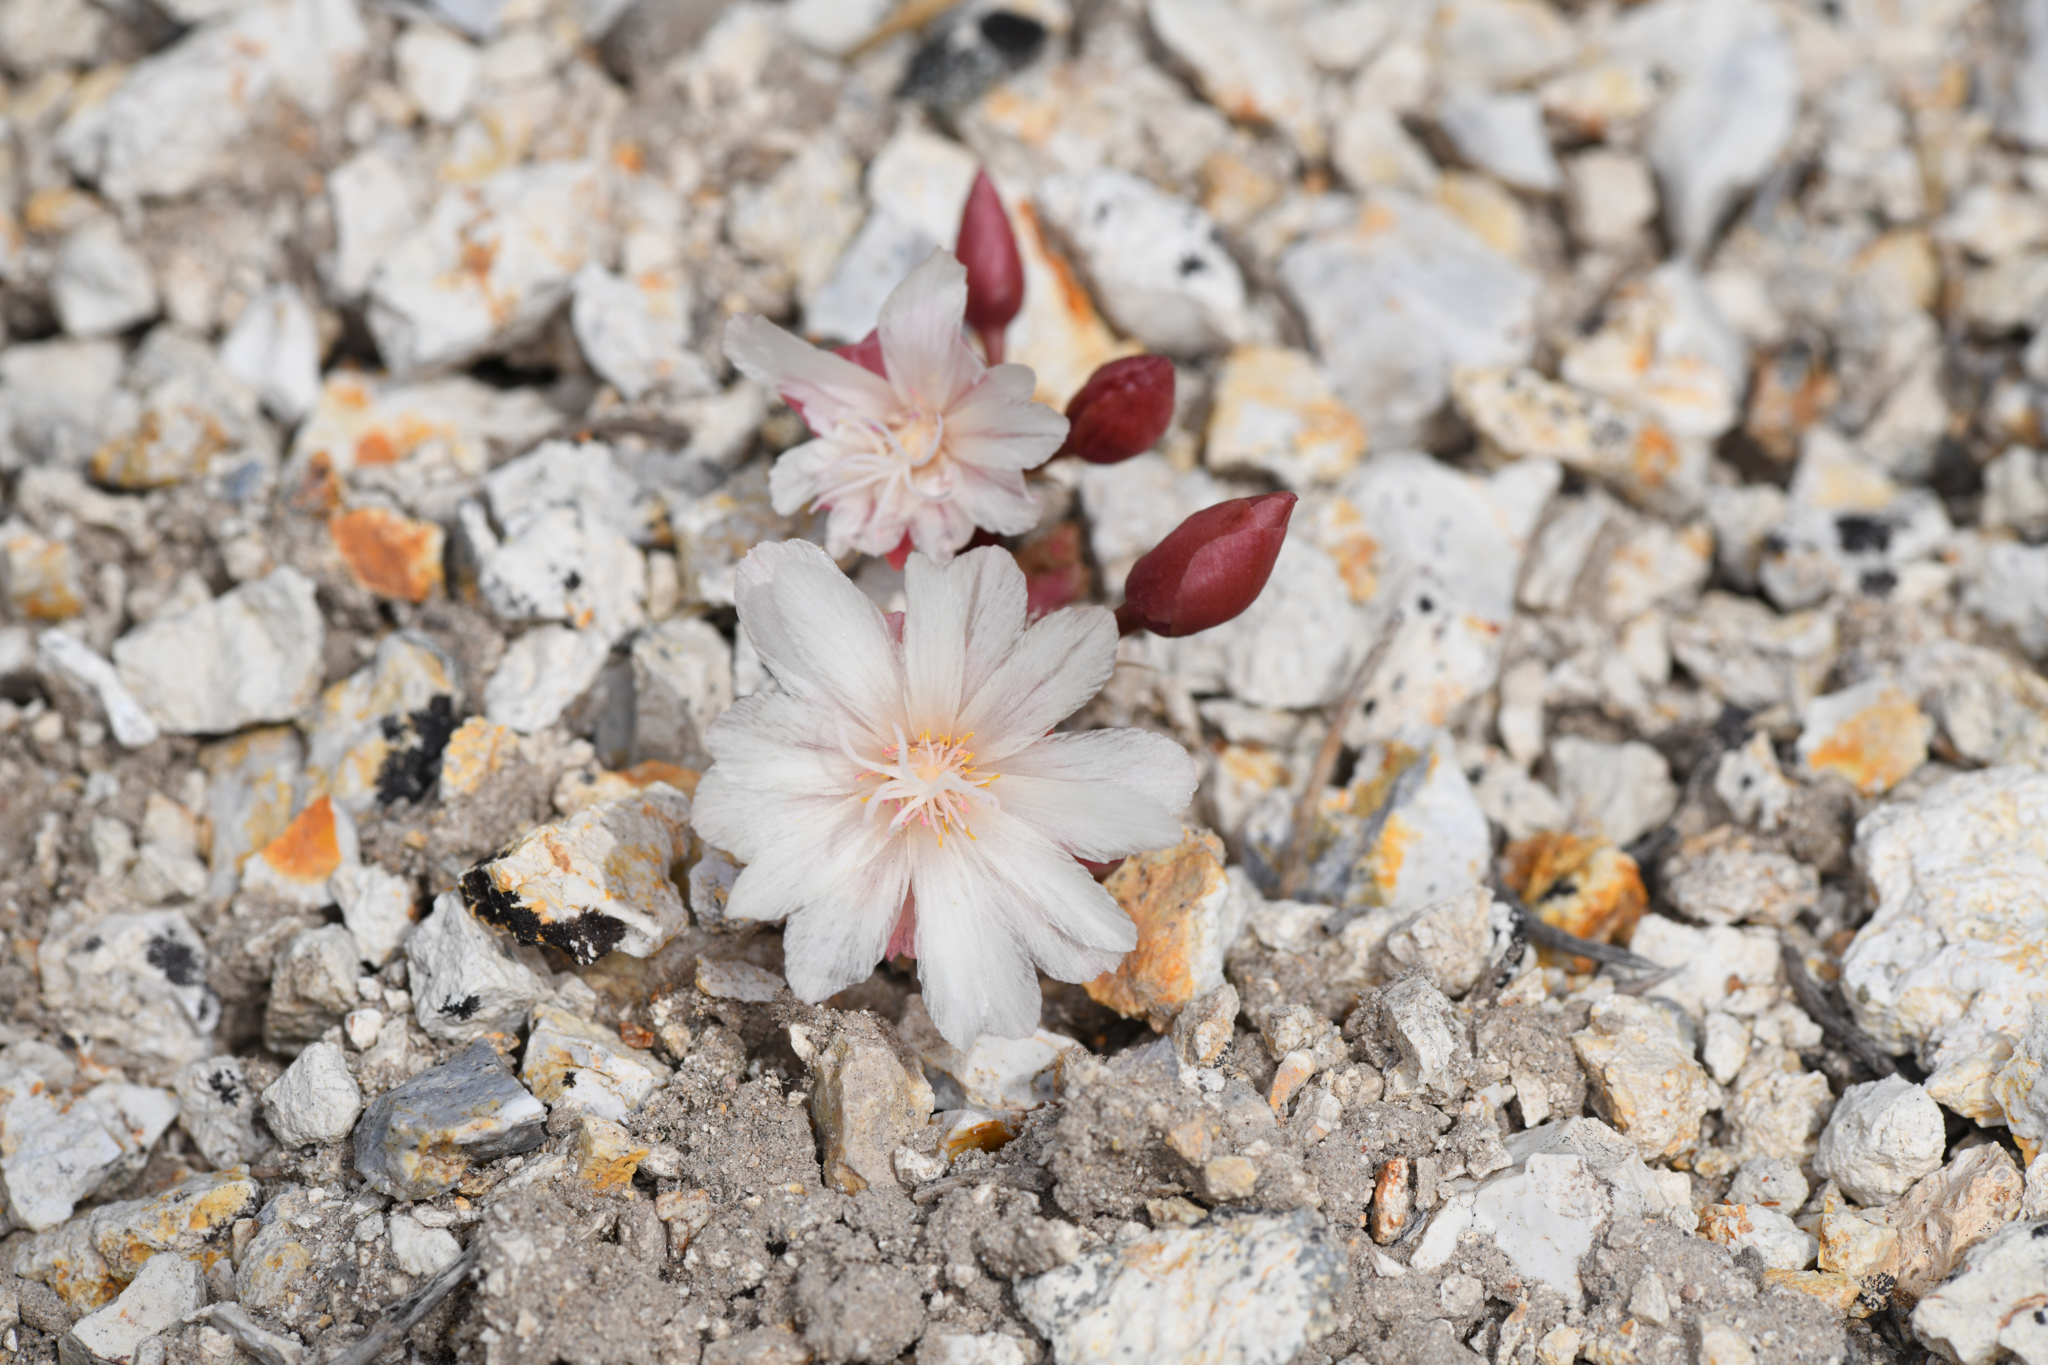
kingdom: Plantae
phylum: Tracheophyta
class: Magnoliopsida
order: Caryophyllales
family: Montiaceae
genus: Lewisia
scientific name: Lewisia rediviva
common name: Bitter-root
